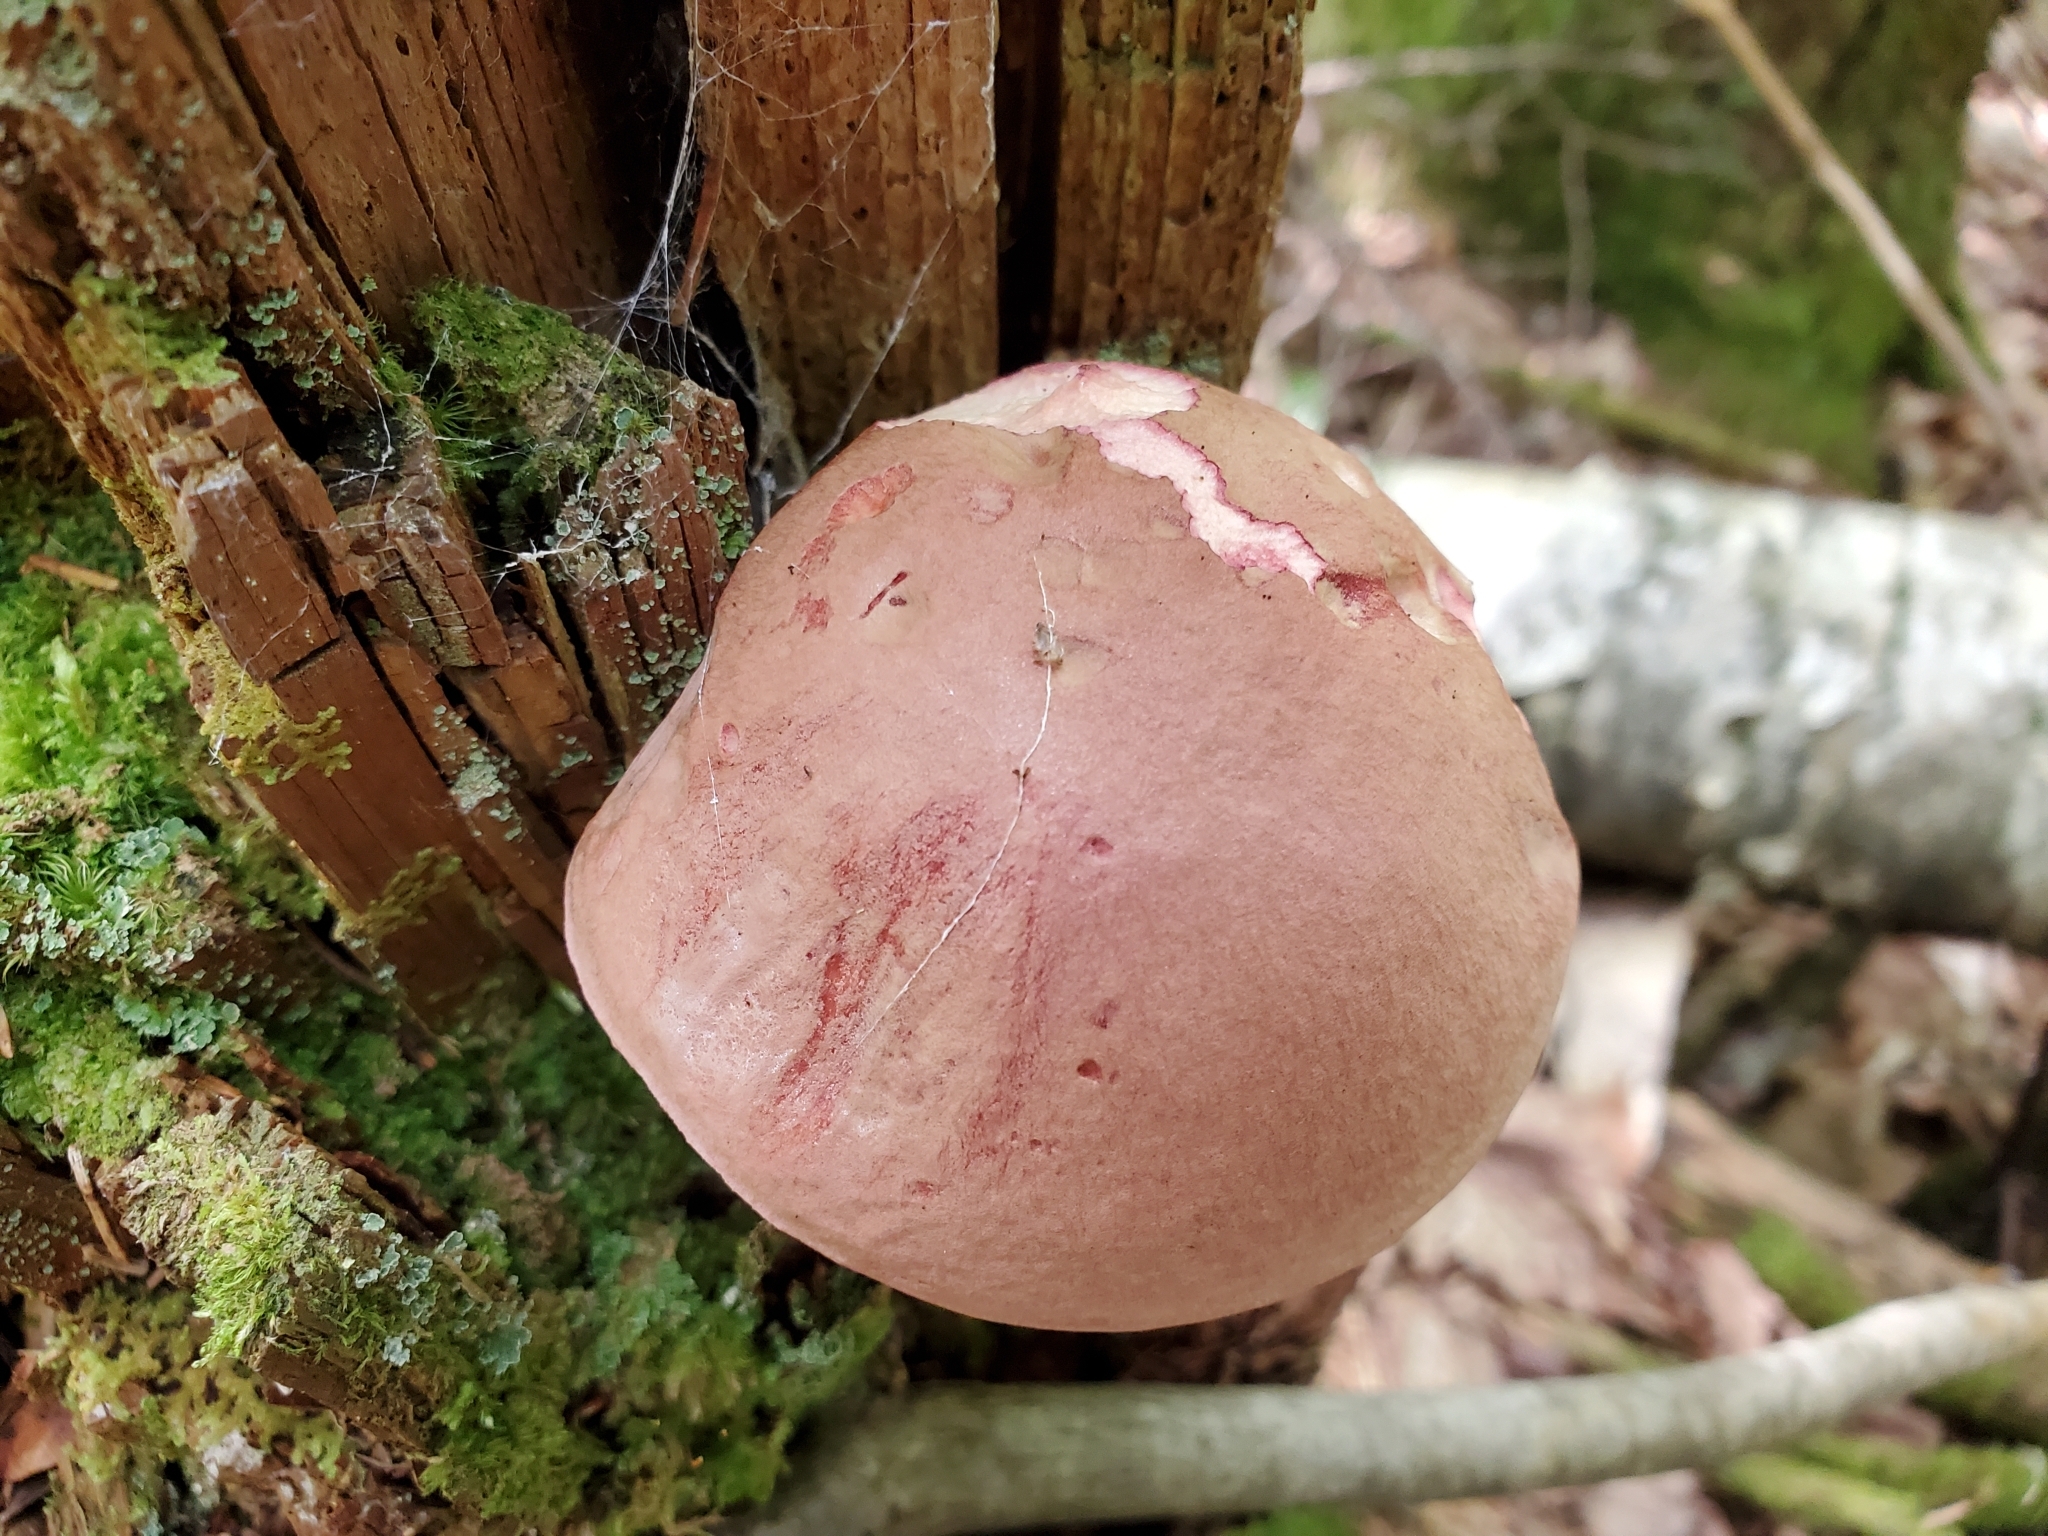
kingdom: Fungi
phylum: Basidiomycota
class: Agaricomycetes
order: Boletales
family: Boletaceae
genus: Harrya
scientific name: Harrya chromipes
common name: Chrome-footed bolete
